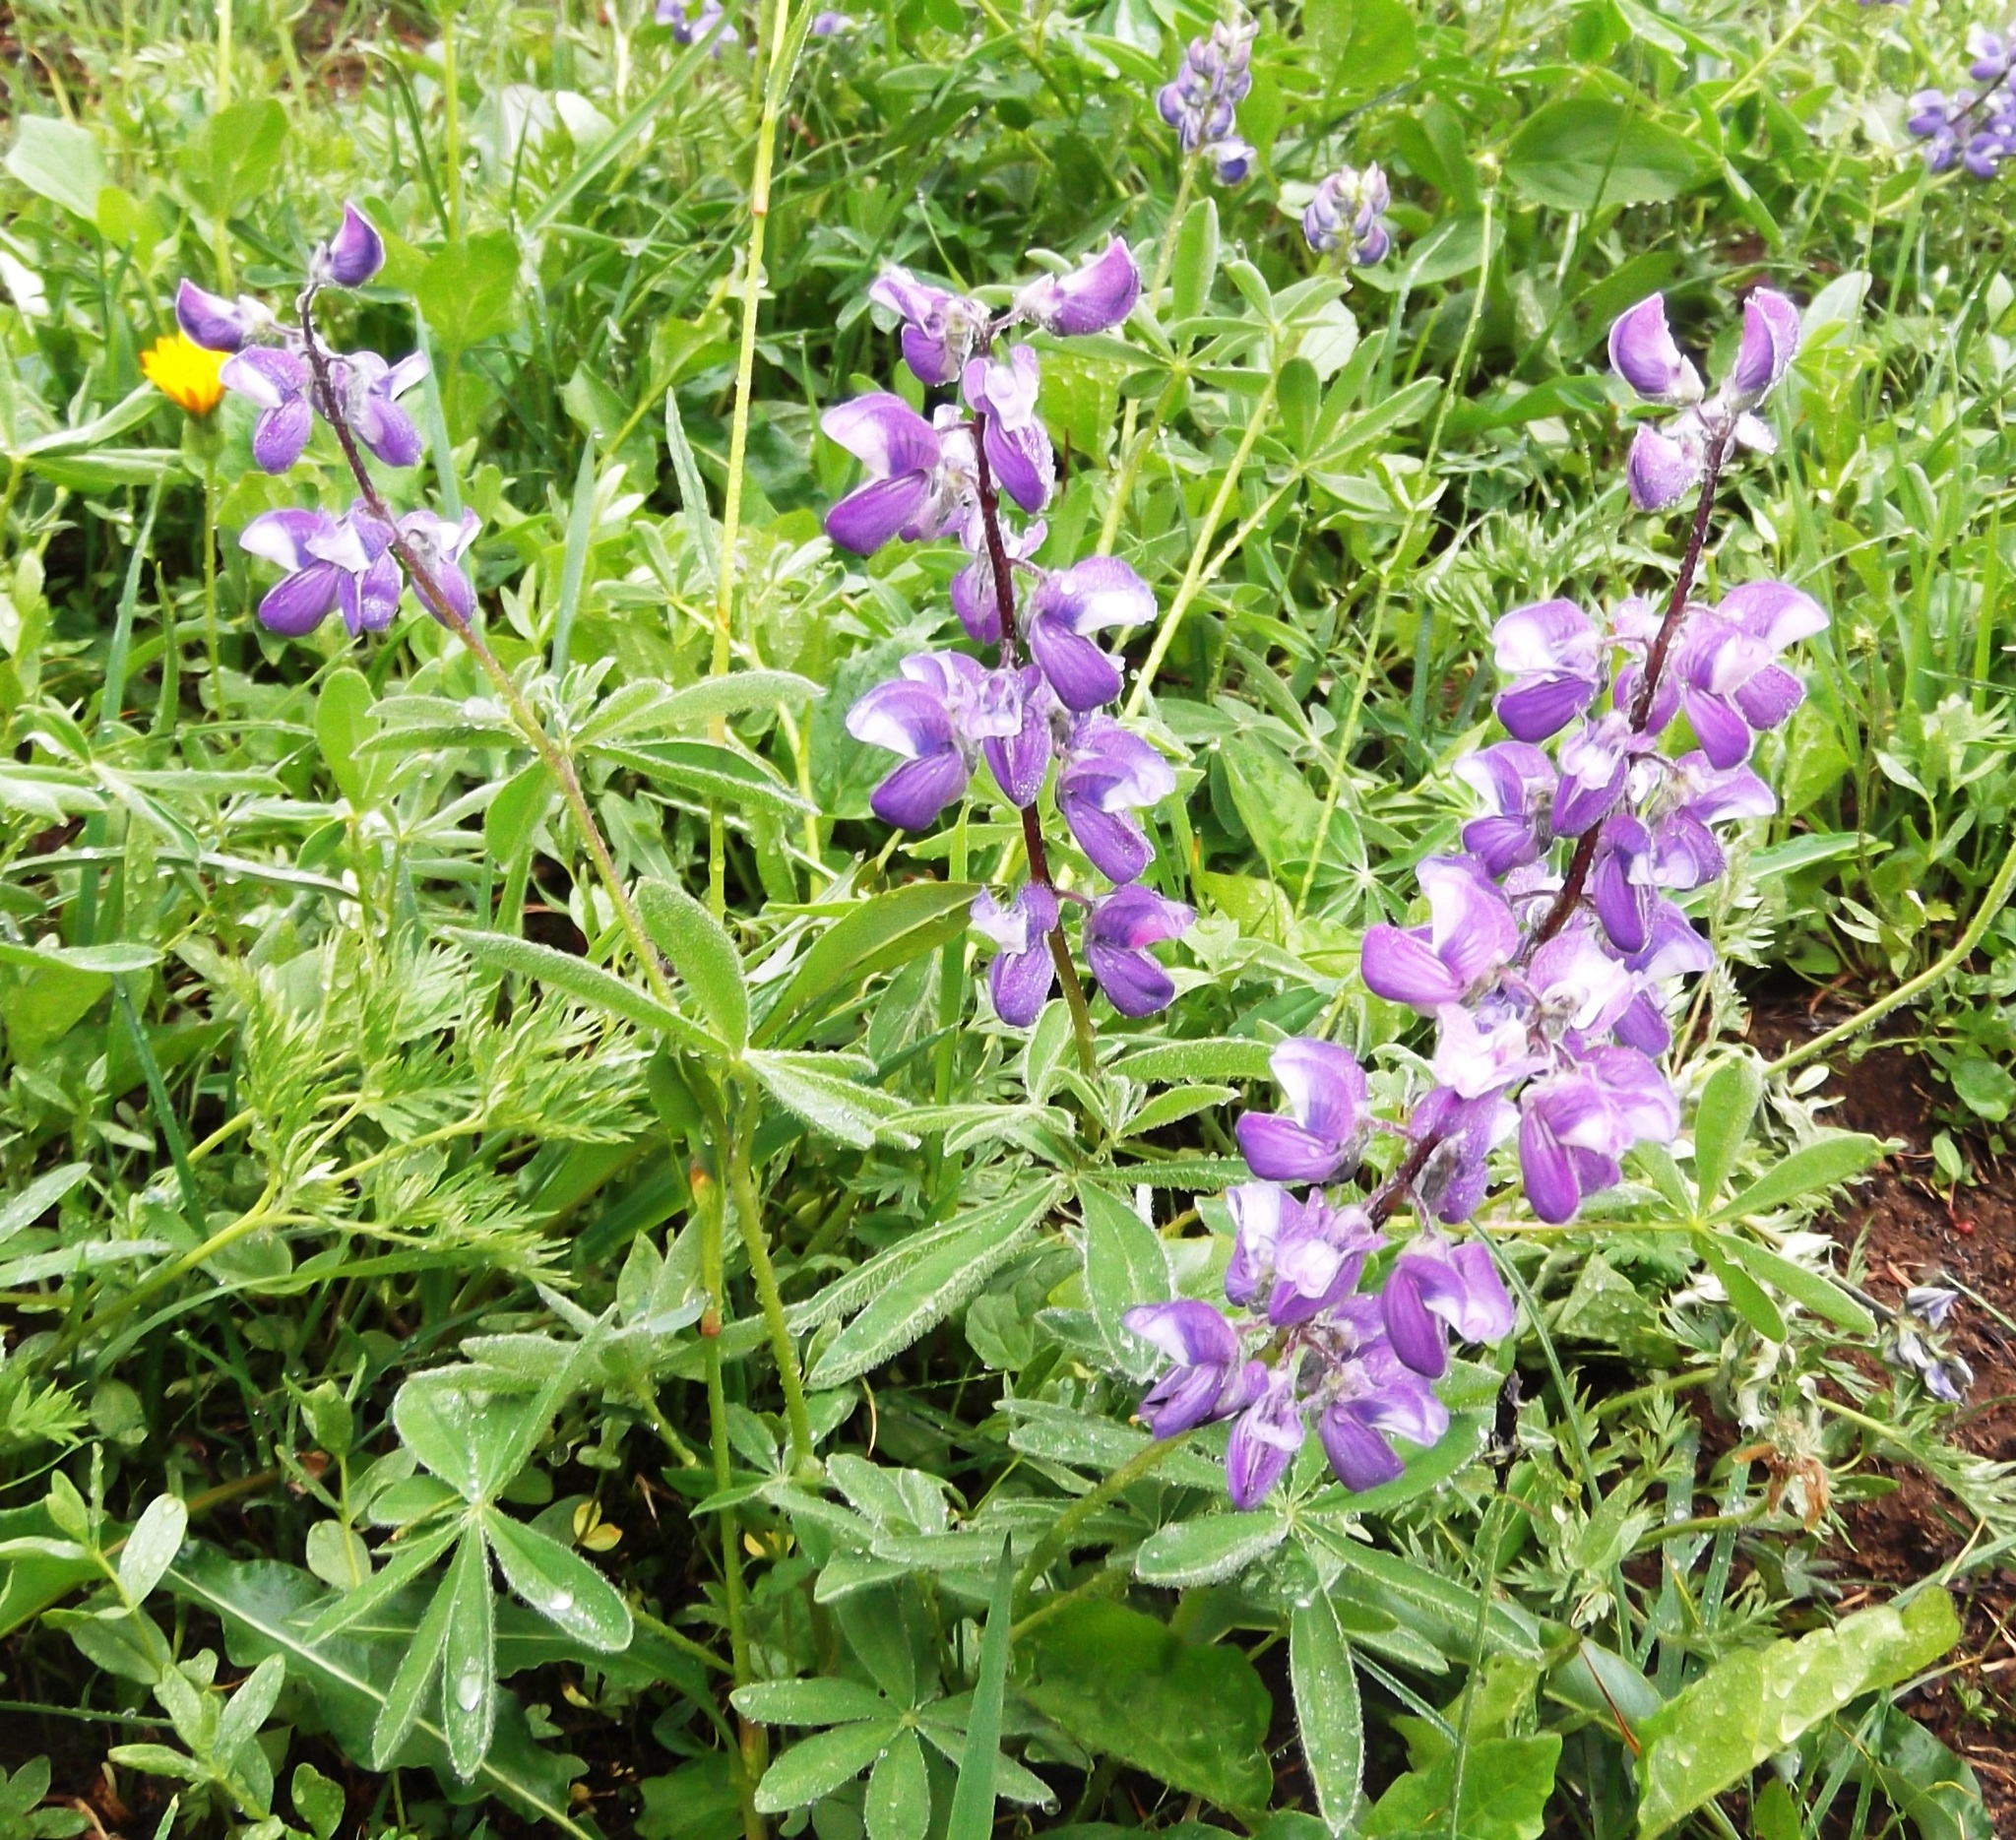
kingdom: Plantae
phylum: Tracheophyta
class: Magnoliopsida
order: Fabales
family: Fabaceae
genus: Lupinus
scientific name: Lupinus latifolius
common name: Broad-leaved lupine
